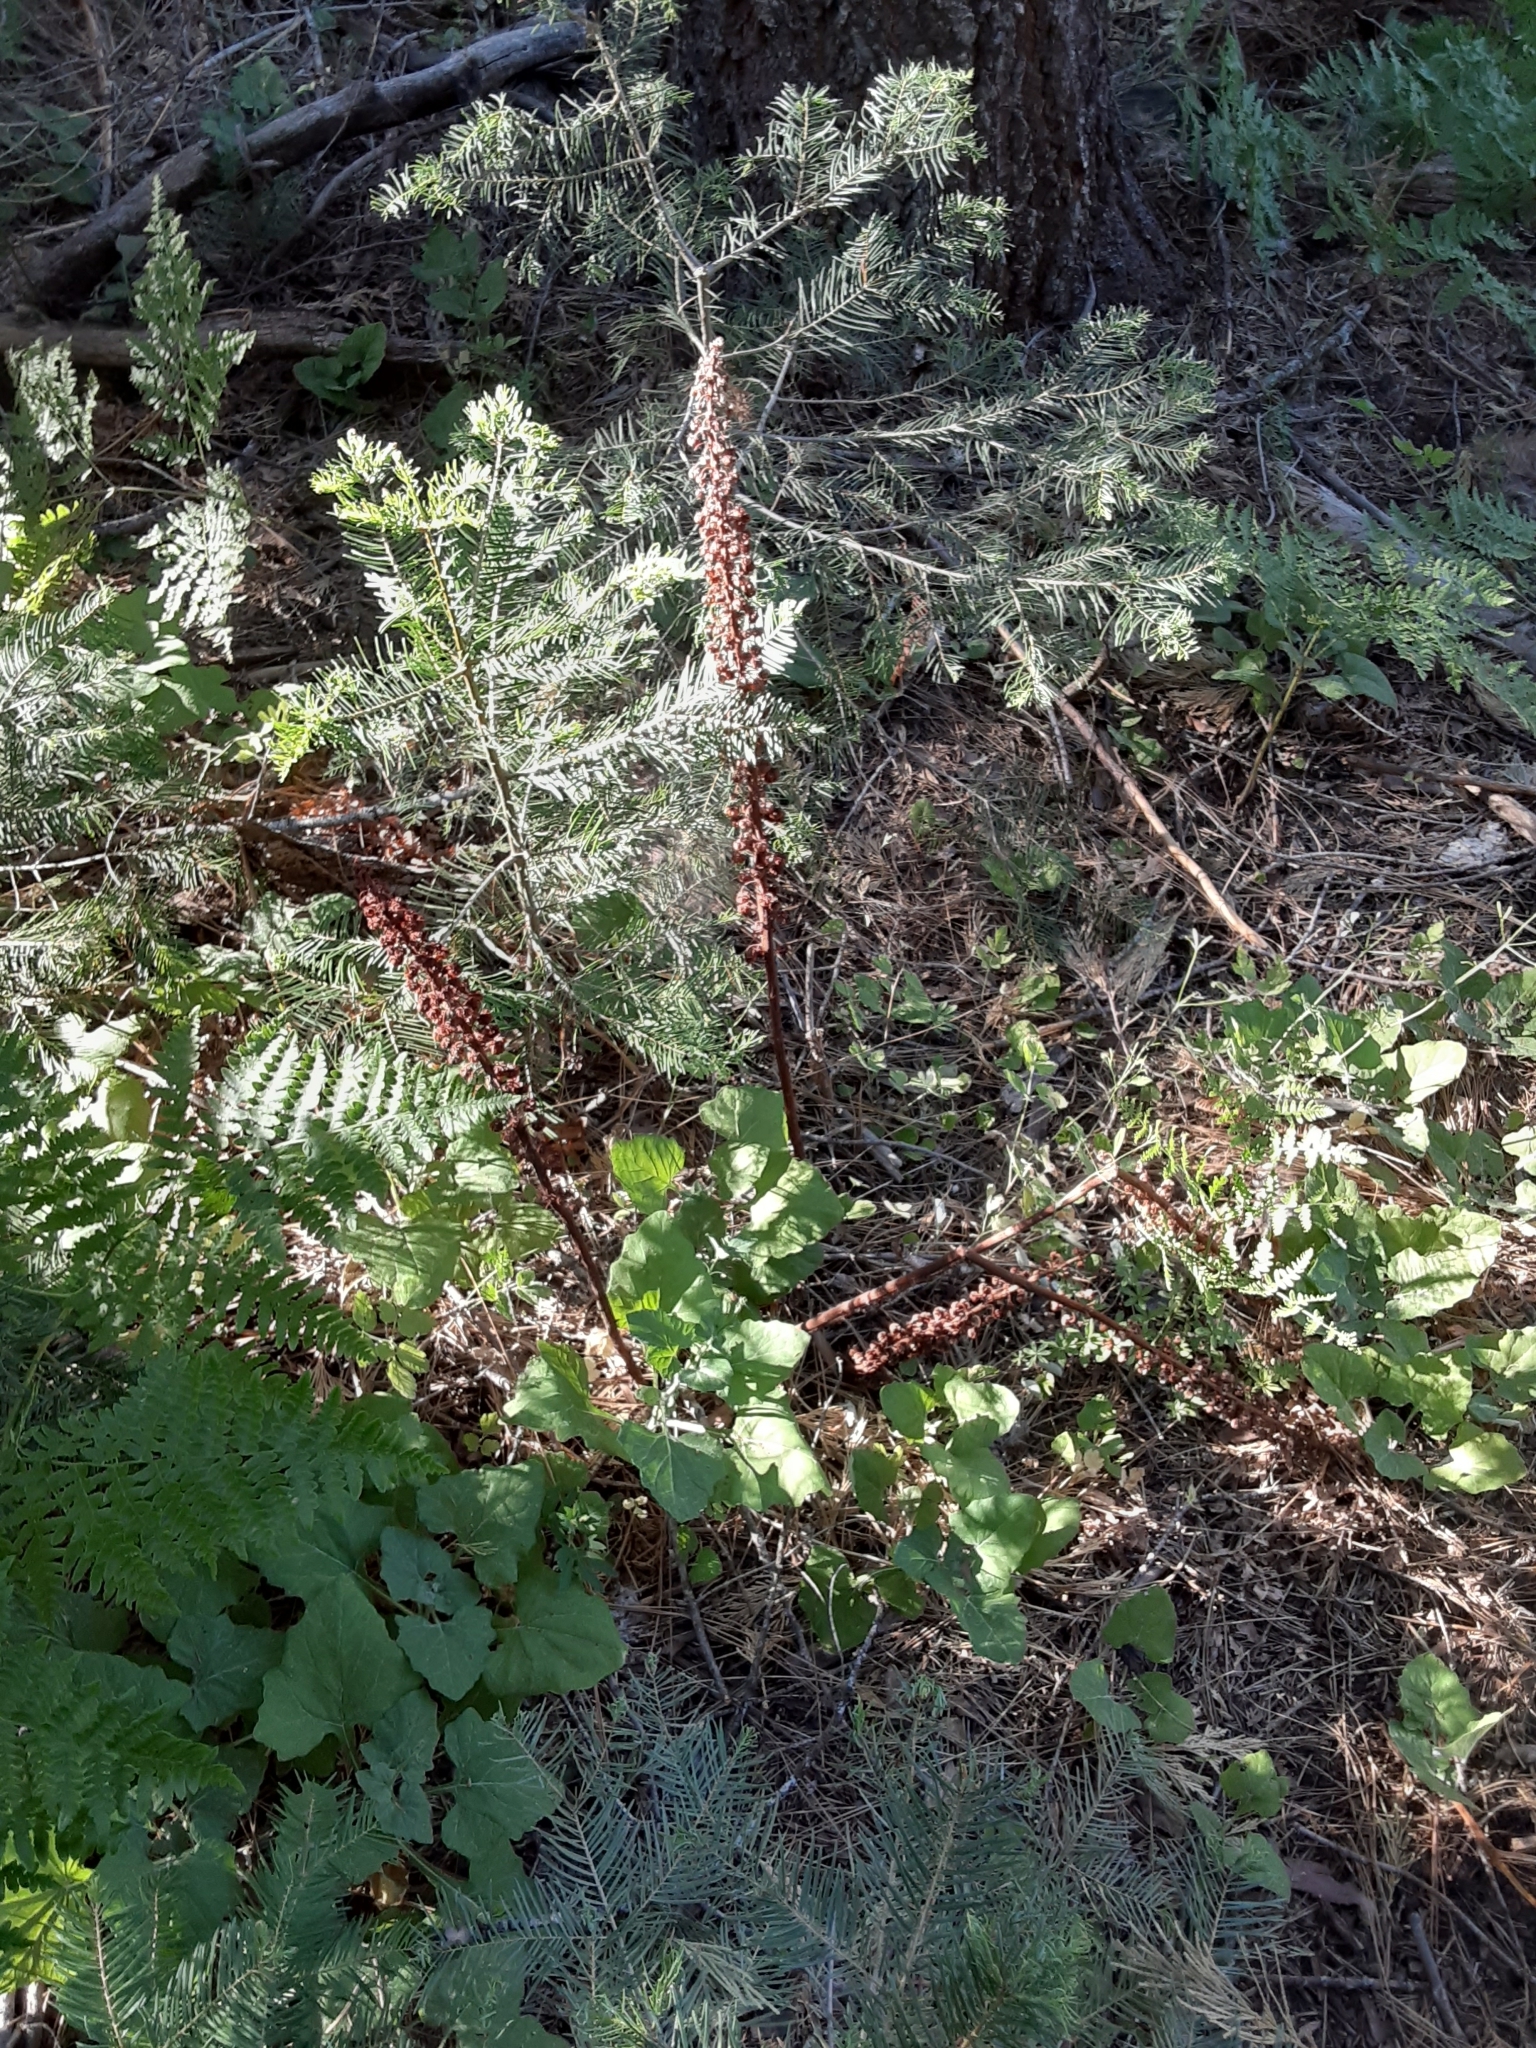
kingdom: Plantae
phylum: Tracheophyta
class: Magnoliopsida
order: Ericales
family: Ericaceae
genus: Pterospora
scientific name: Pterospora andromedea
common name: Giant bird's-nest
